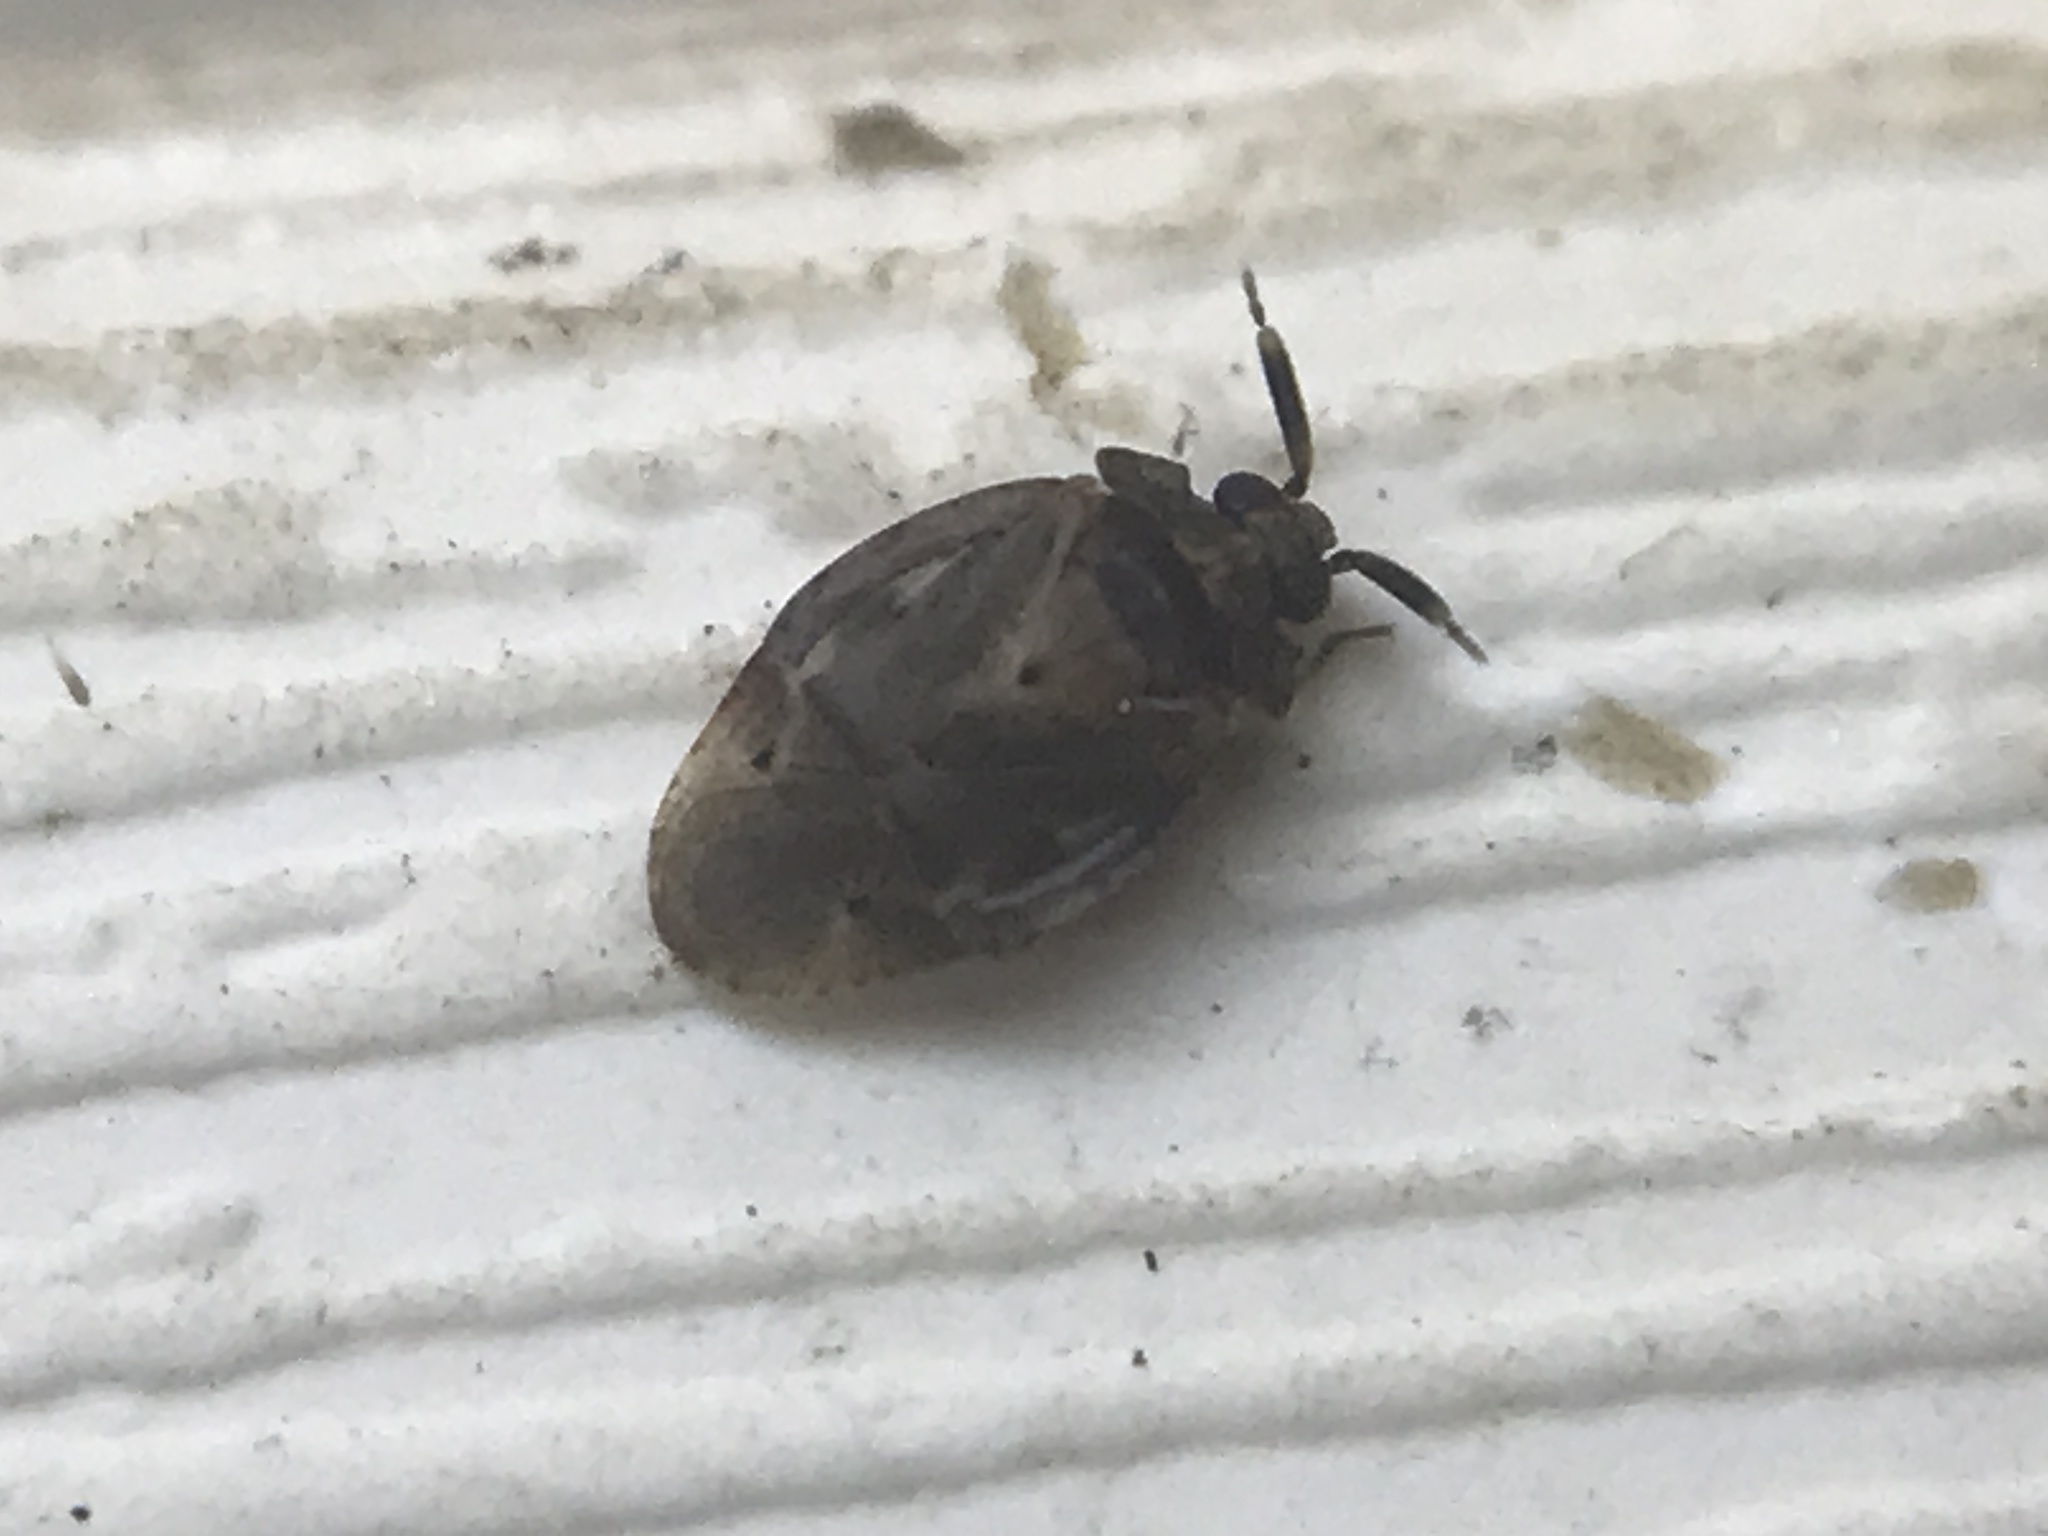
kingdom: Animalia
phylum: Arthropoda
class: Insecta
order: Hemiptera
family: Miridae
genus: Diphleps
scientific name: Diphleps unica
